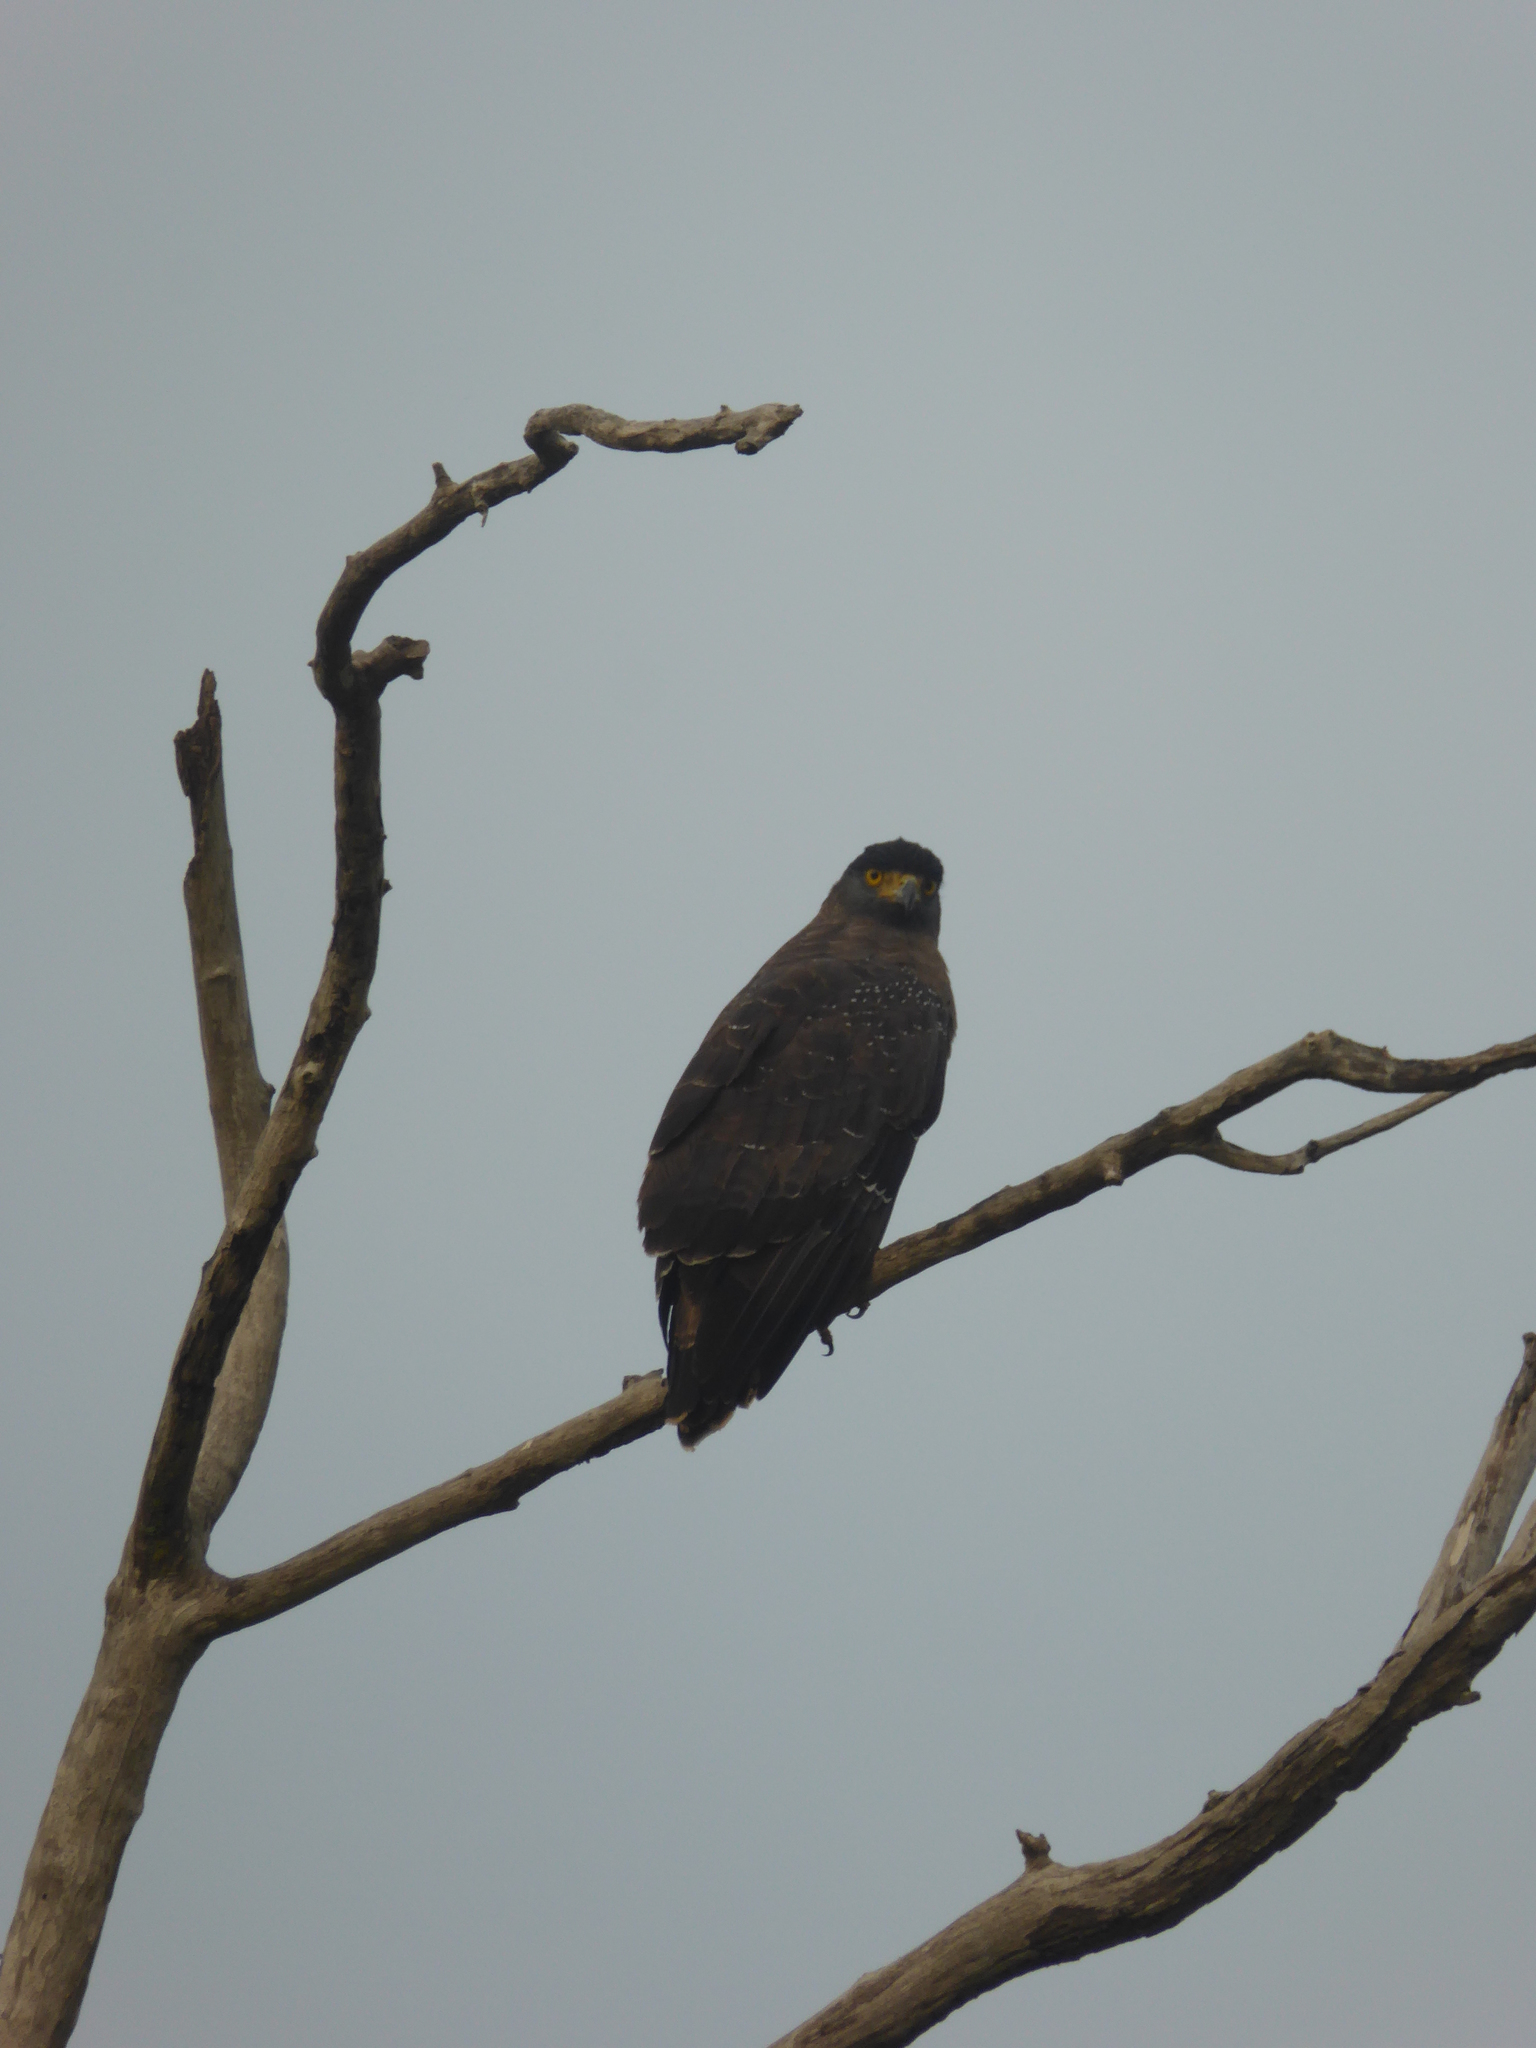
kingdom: Animalia
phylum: Chordata
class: Aves
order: Accipitriformes
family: Accipitridae
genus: Spilornis
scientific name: Spilornis cheela
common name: Crested serpent eagle
